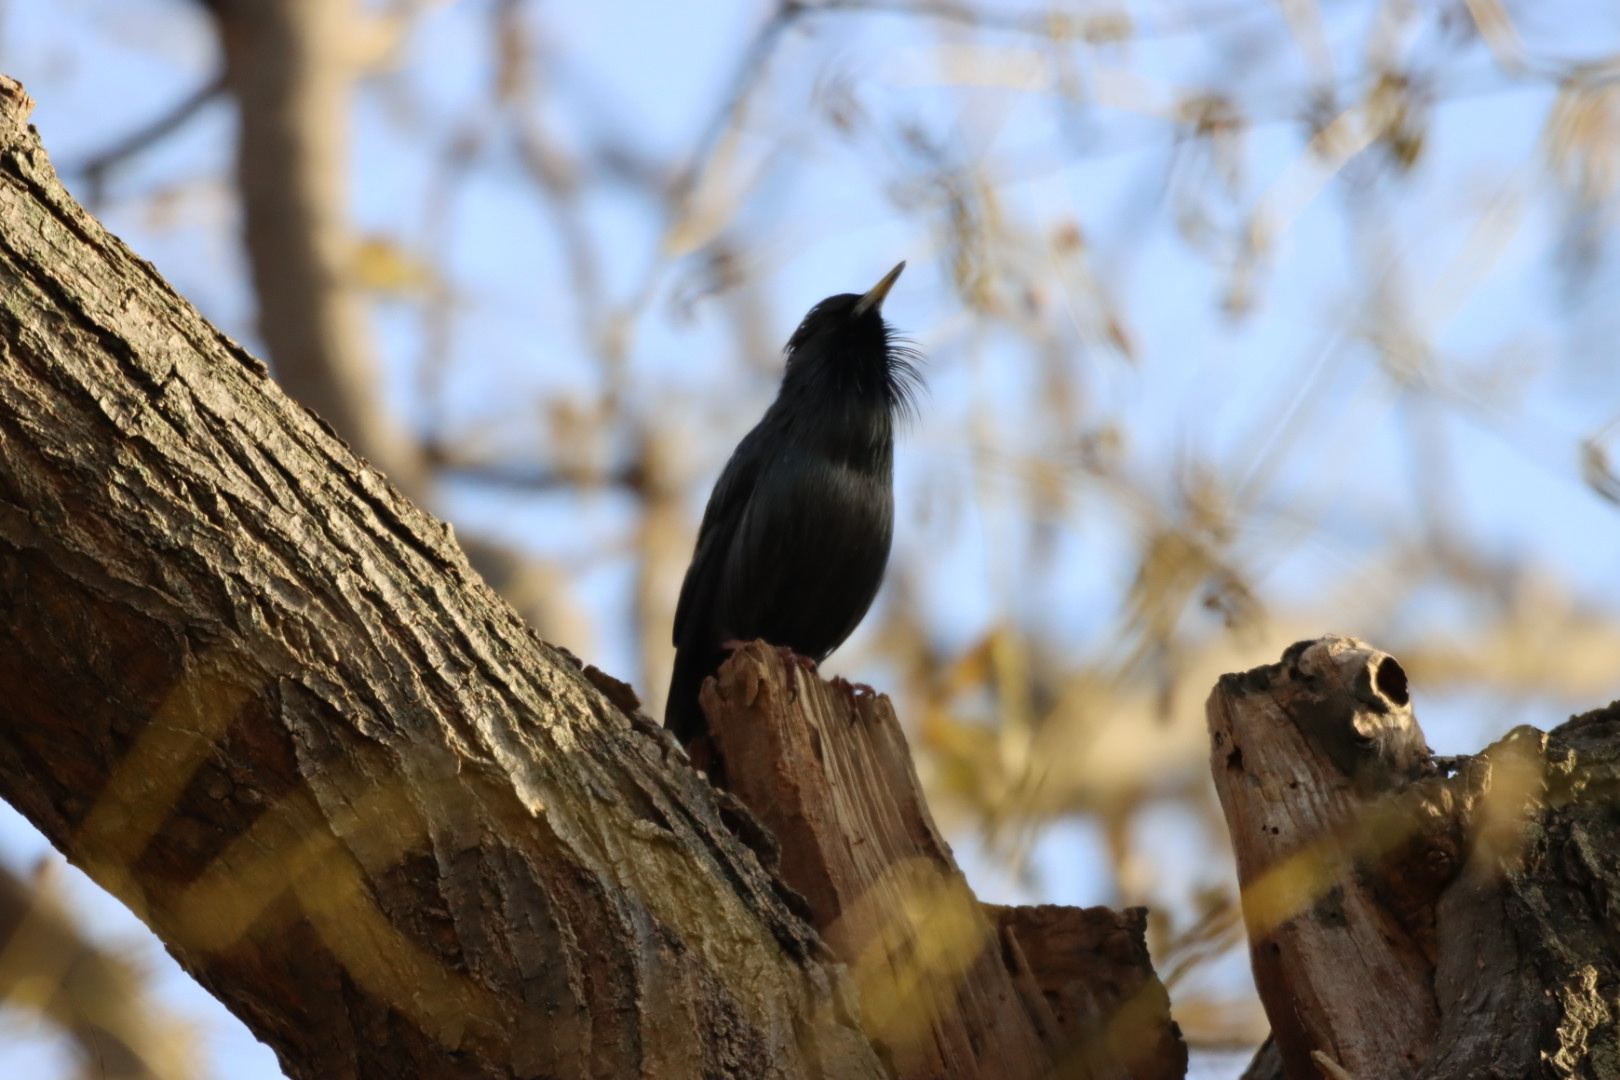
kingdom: Animalia
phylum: Chordata
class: Aves
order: Passeriformes
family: Sturnidae
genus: Sturnus
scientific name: Sturnus unicolor
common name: Spotless starling
